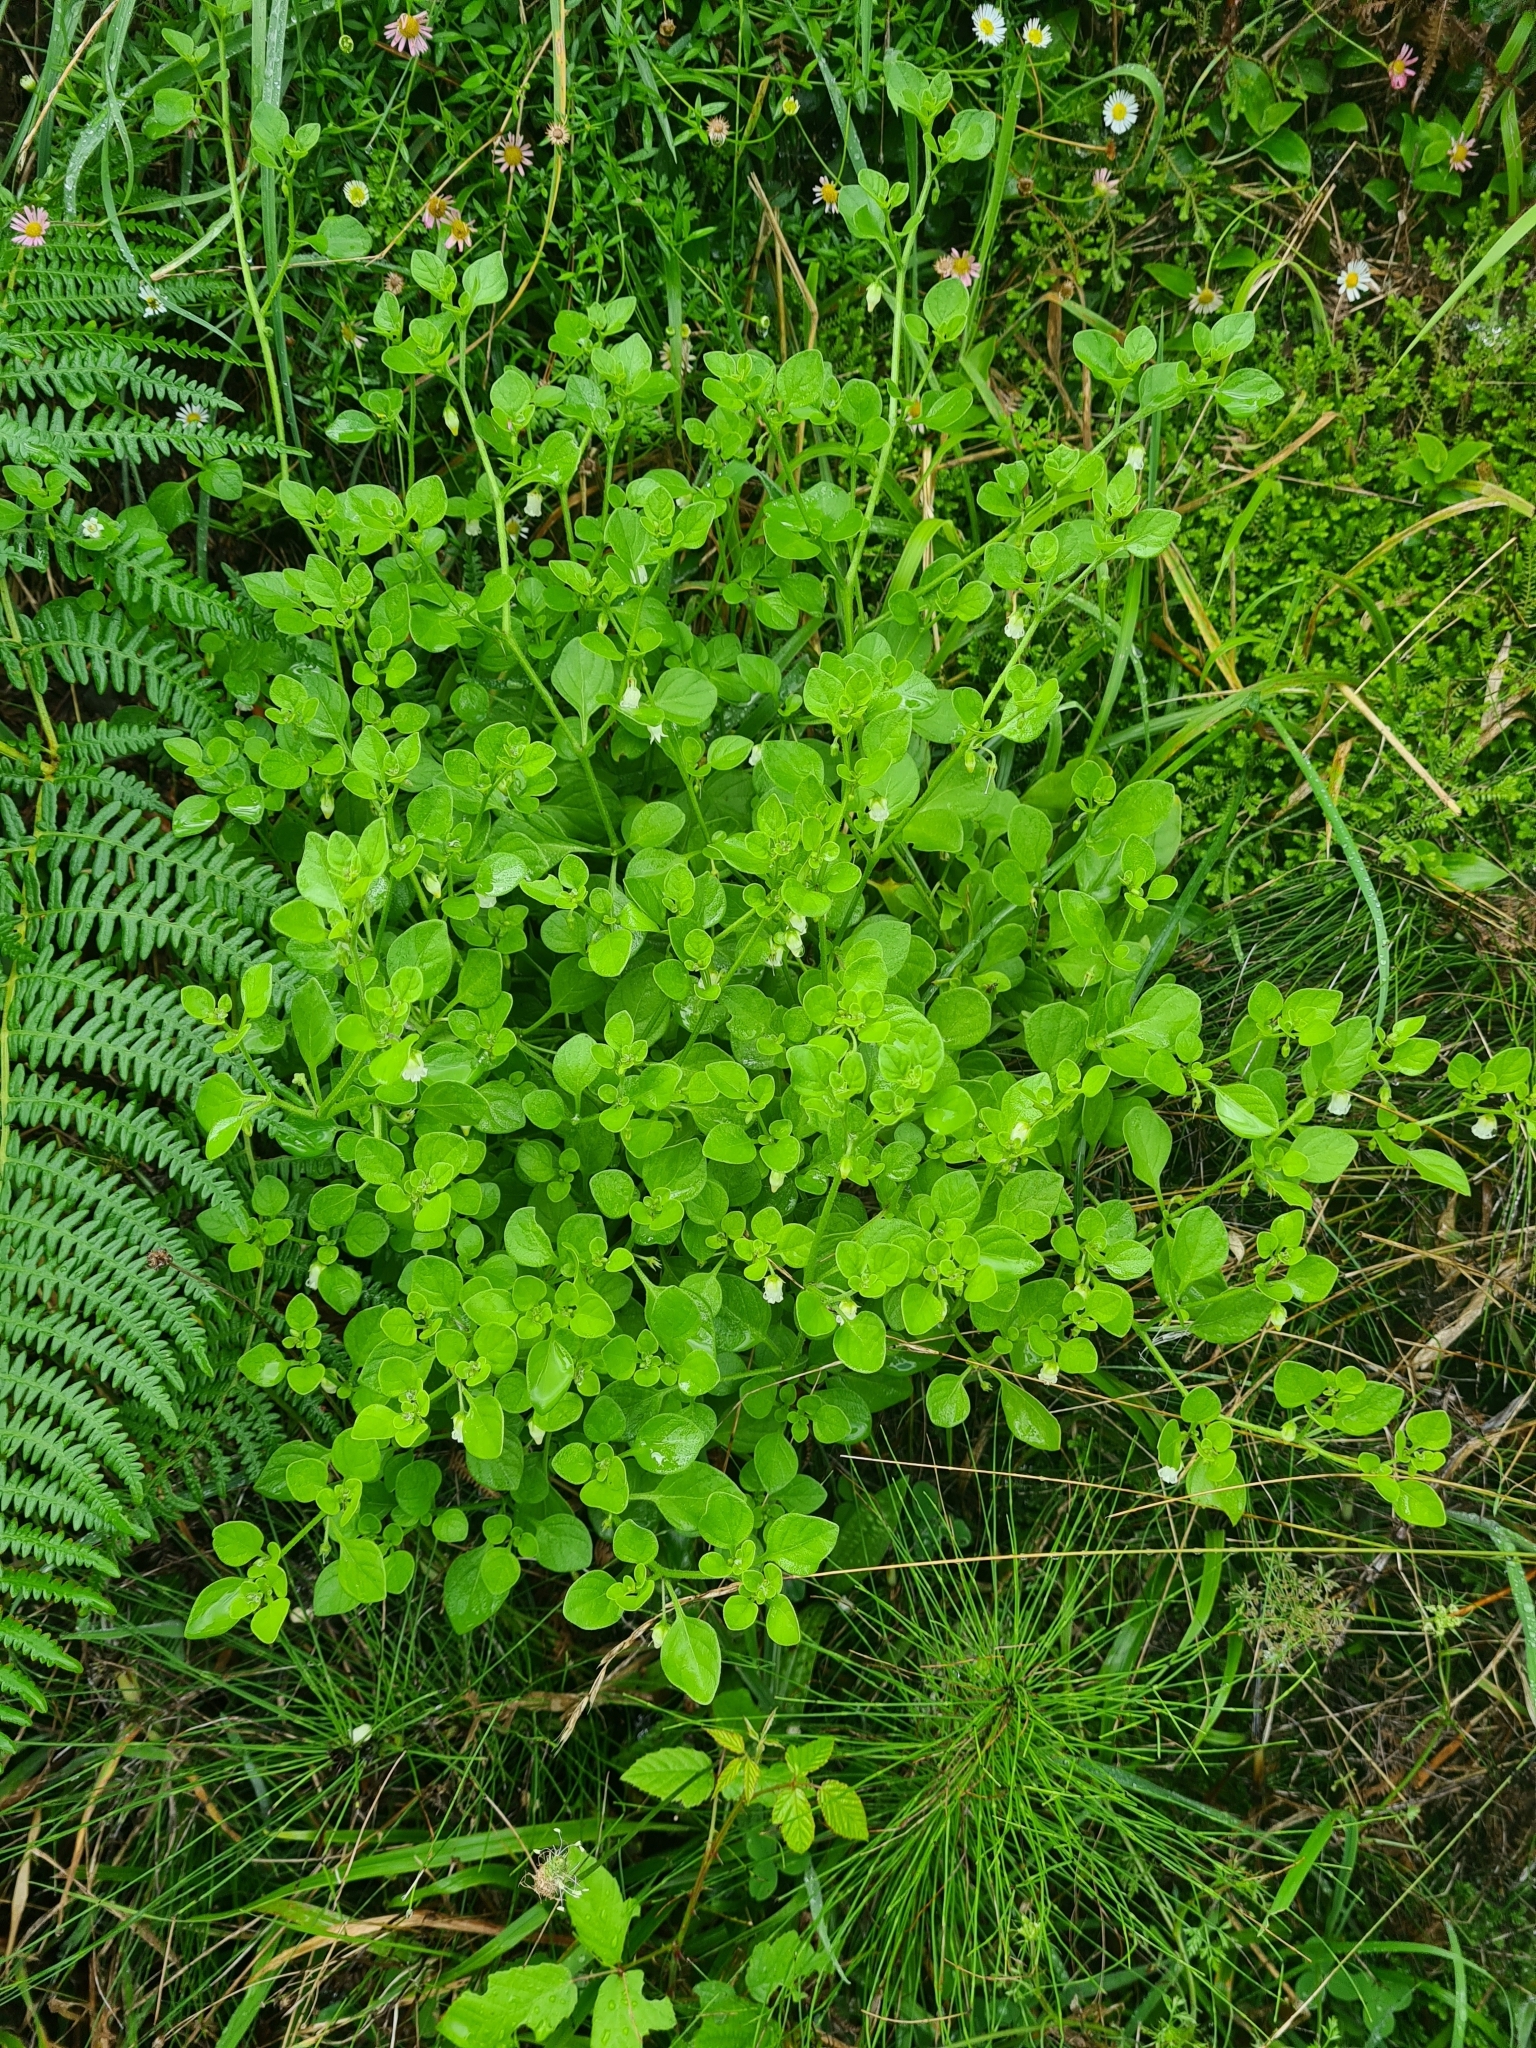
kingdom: Plantae
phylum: Tracheophyta
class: Magnoliopsida
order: Solanales
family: Solanaceae
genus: Salpichroa
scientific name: Salpichroa origanifolia
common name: Lily-of-the-valley-vine
